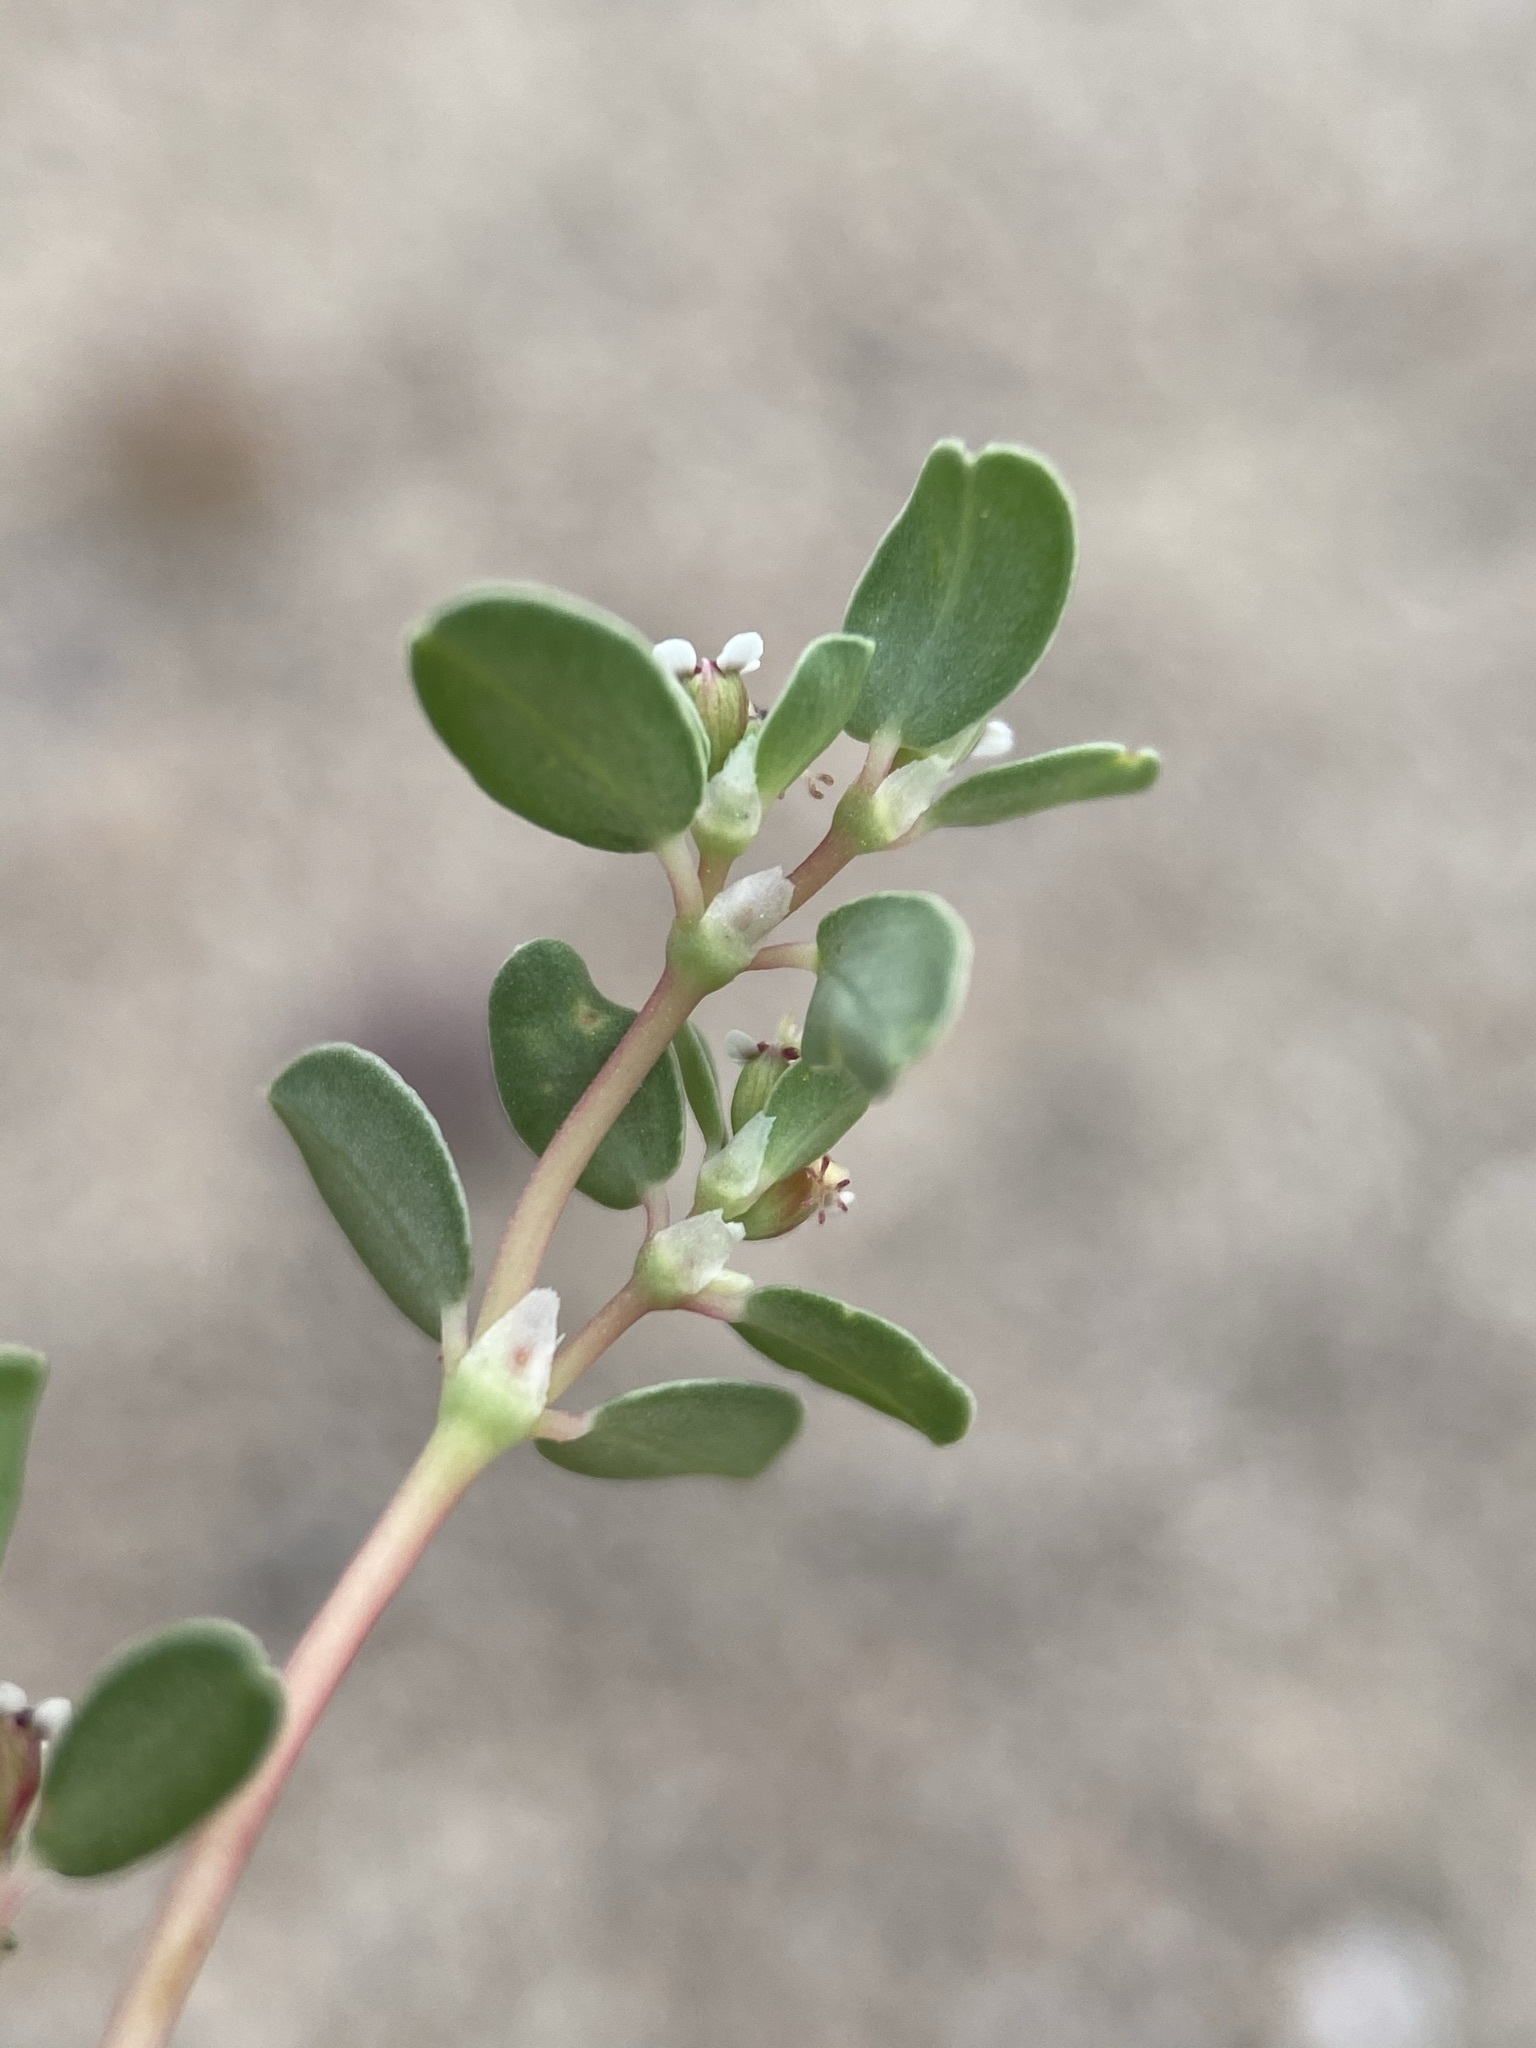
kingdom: Plantae
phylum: Tracheophyta
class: Magnoliopsida
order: Malpighiales
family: Euphorbiaceae
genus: Euphorbia
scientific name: Euphorbia albomarginata
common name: Whitemargin sandmat
